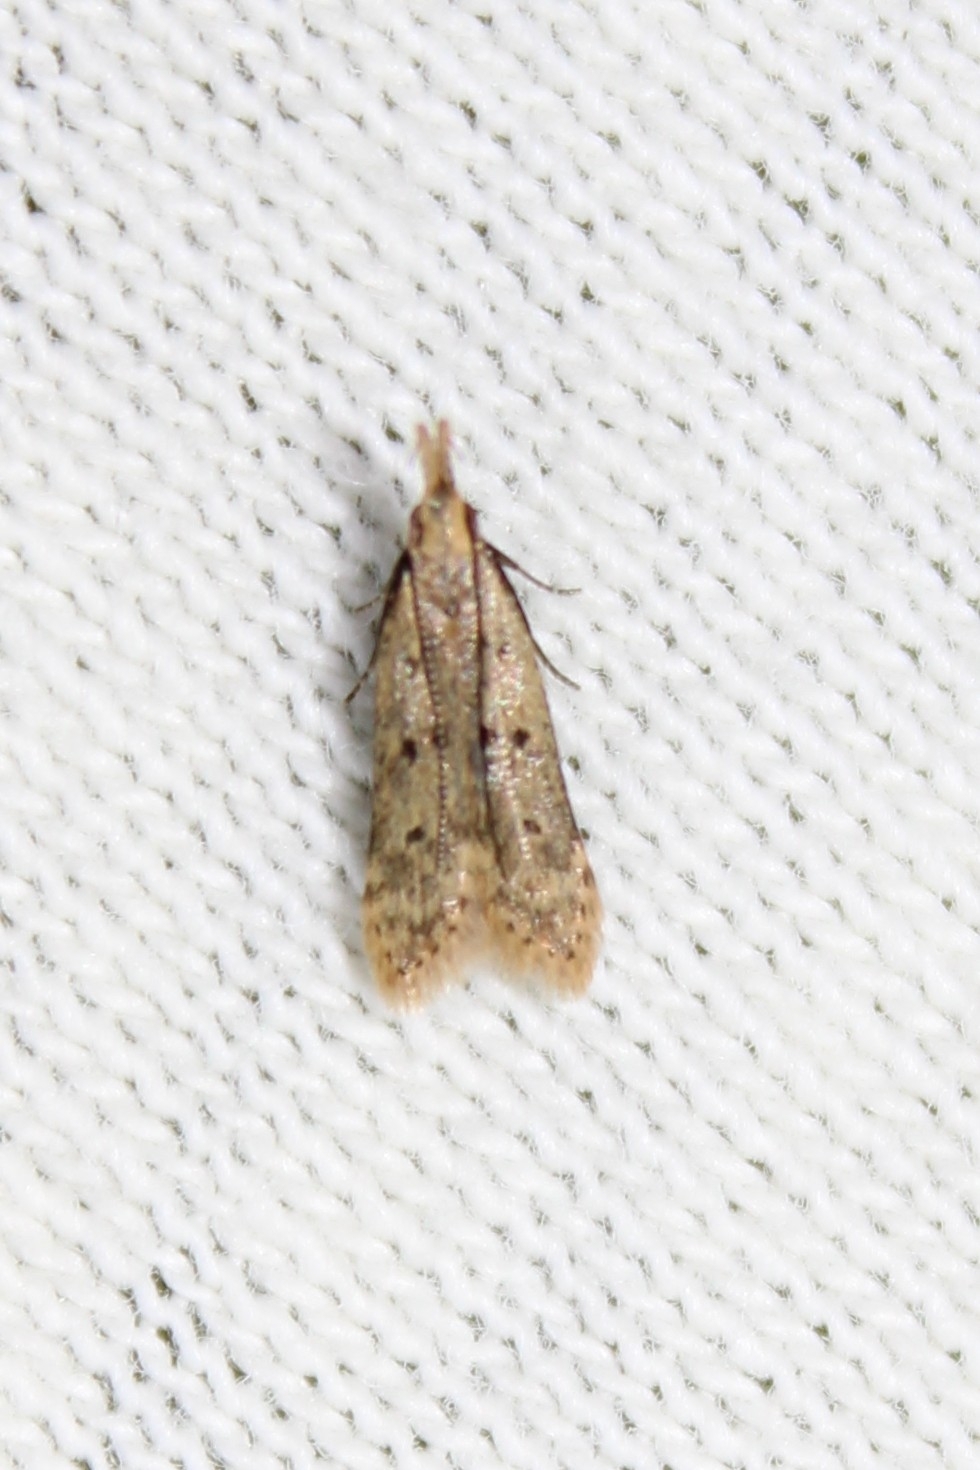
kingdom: Animalia
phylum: Arthropoda
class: Insecta
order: Lepidoptera
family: Gelechiidae
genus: Dichomeris
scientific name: Dichomeris punctipennella
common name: Many-spotted dichomeris moth
